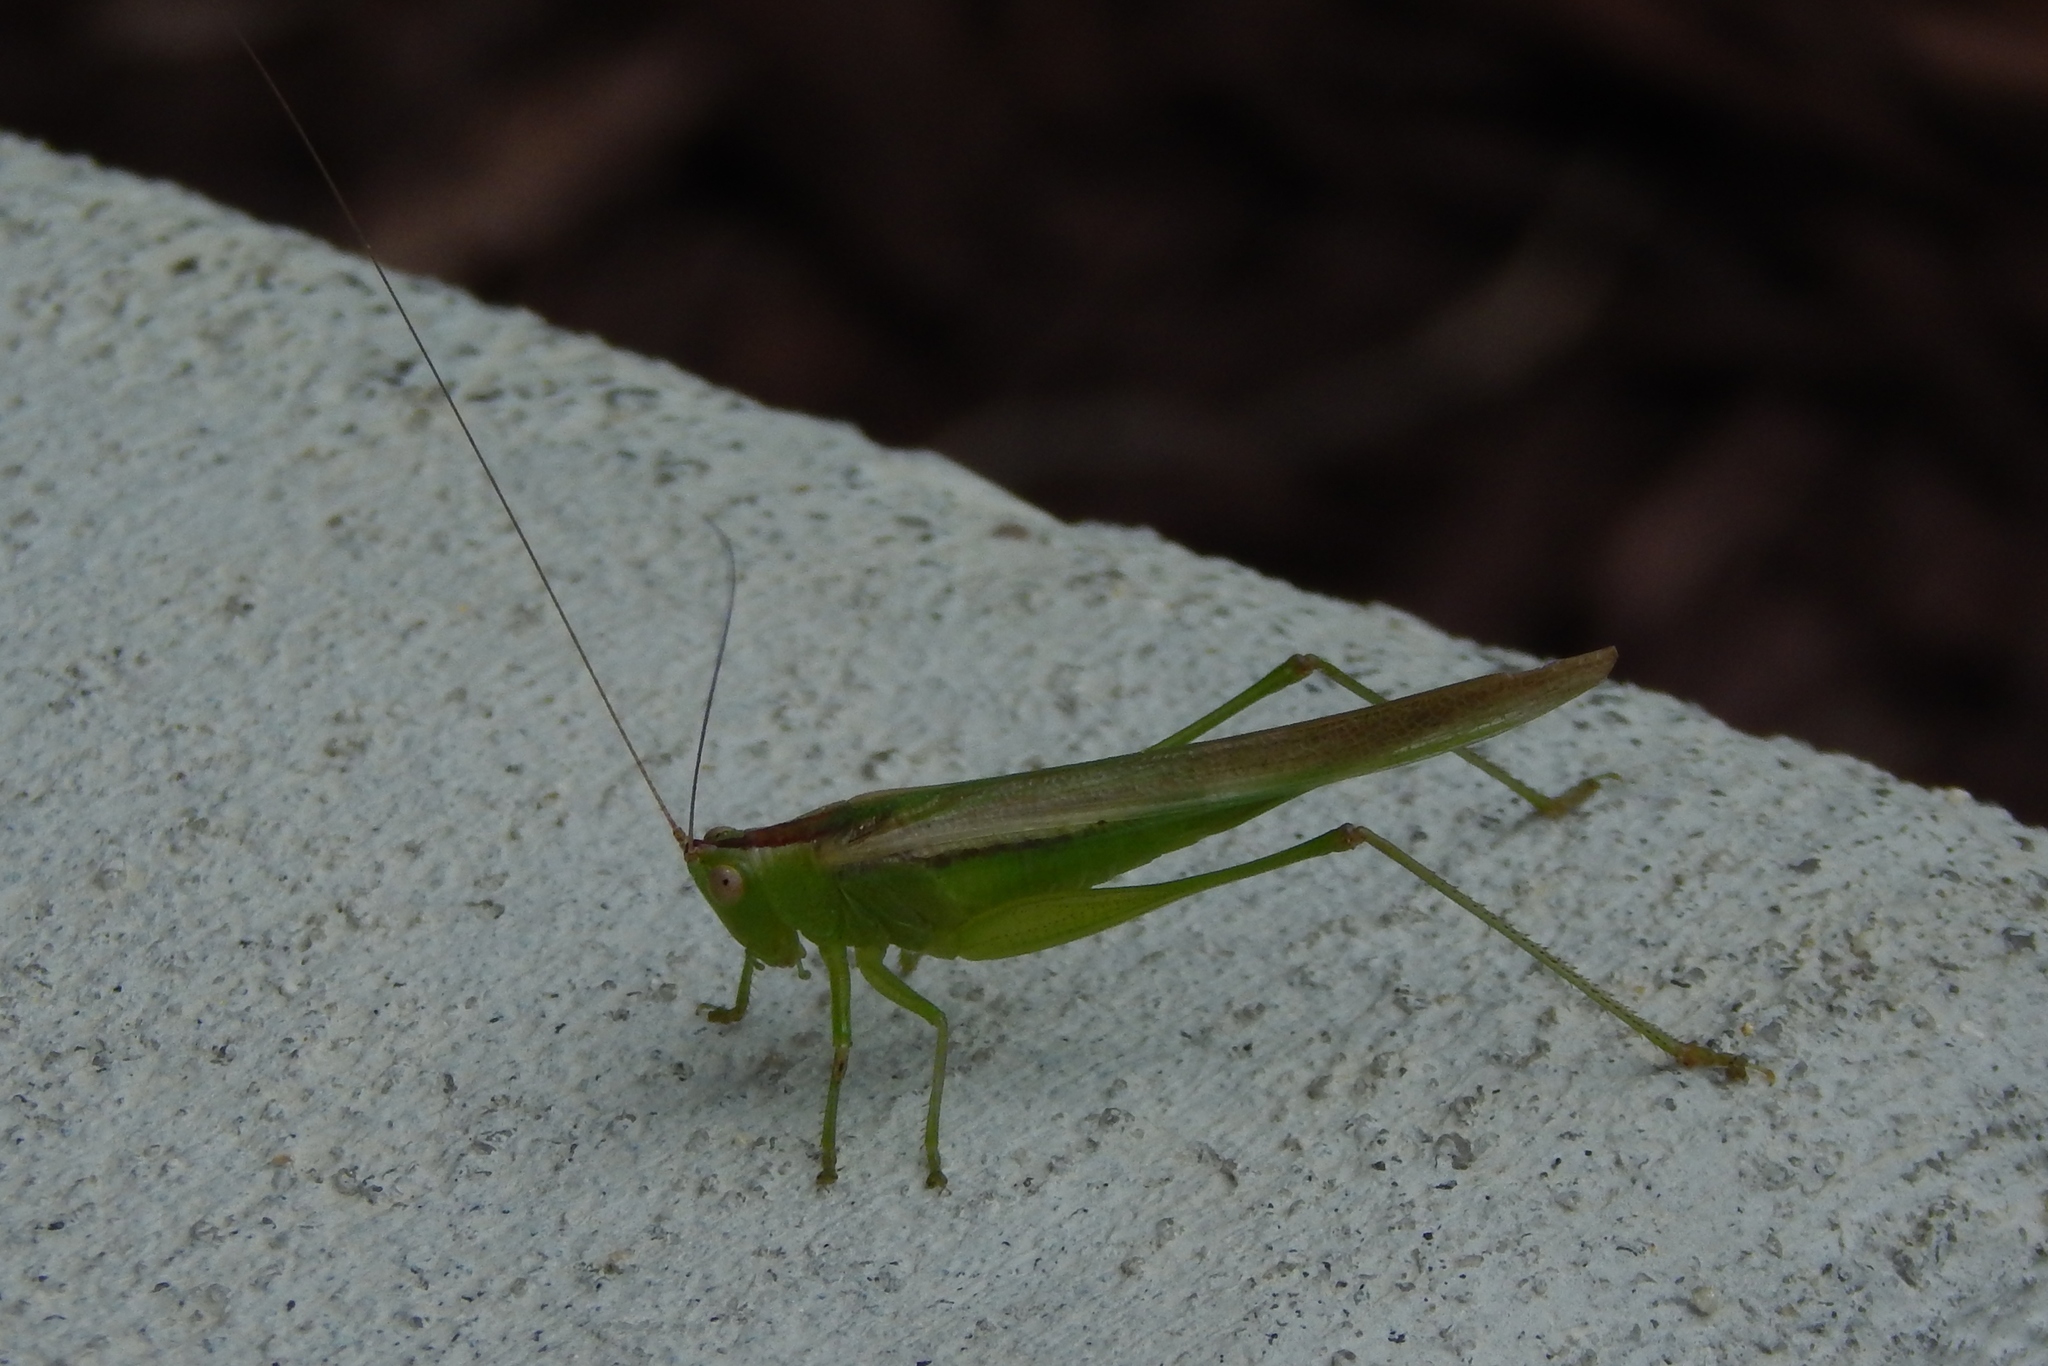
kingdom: Animalia
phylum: Arthropoda
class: Insecta
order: Orthoptera
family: Tettigoniidae
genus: Conocephalus
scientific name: Conocephalus
